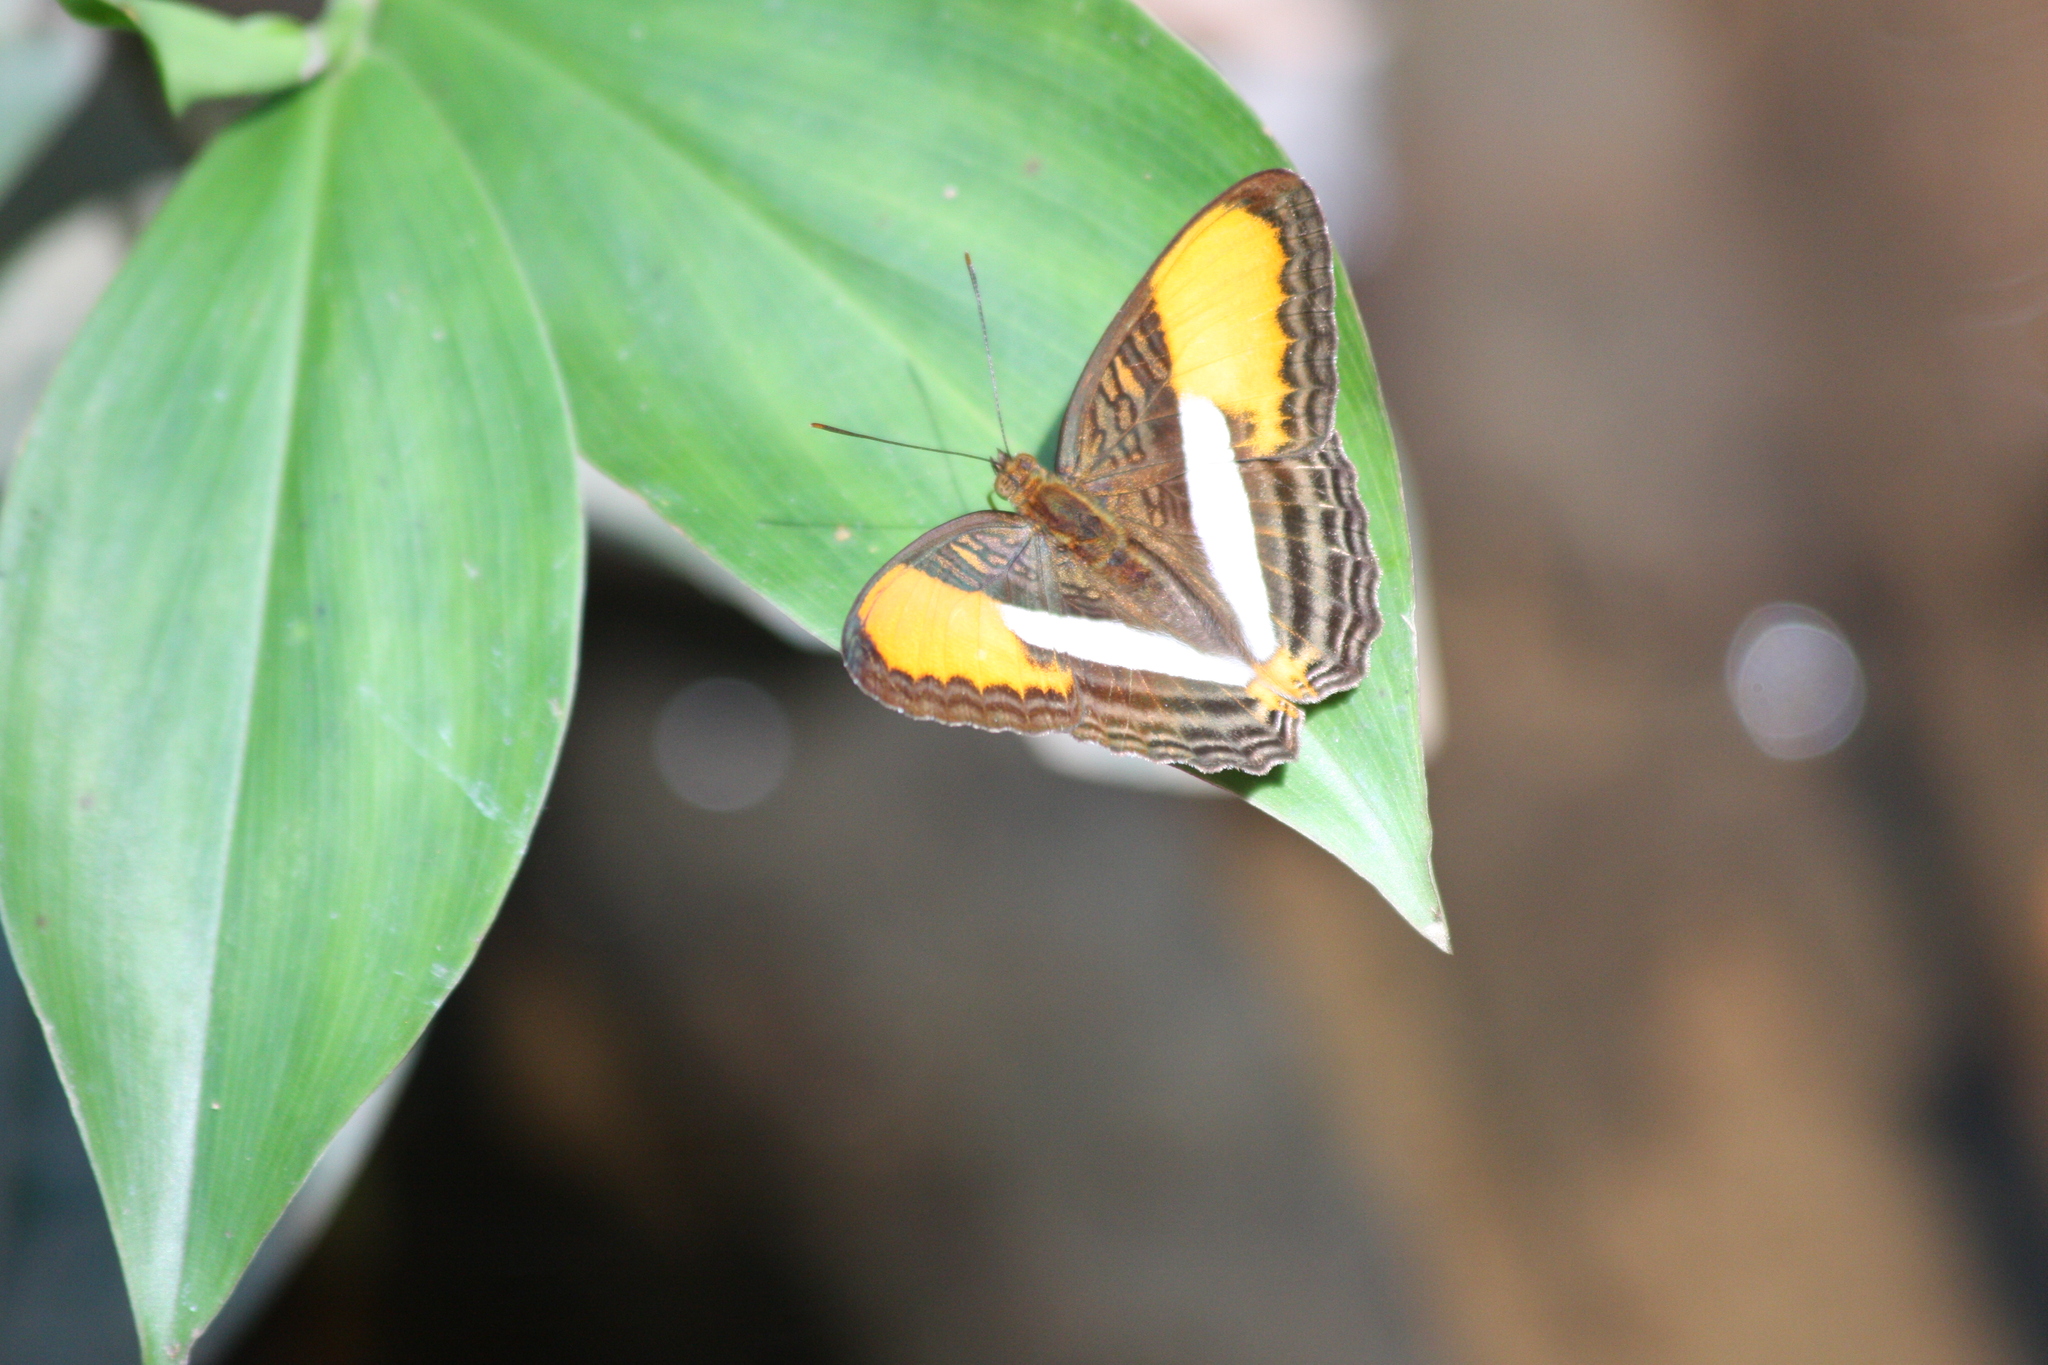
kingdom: Animalia
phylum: Arthropoda
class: Insecta
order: Lepidoptera
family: Nymphalidae
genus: Limenitis
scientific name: Limenitis cytherea
